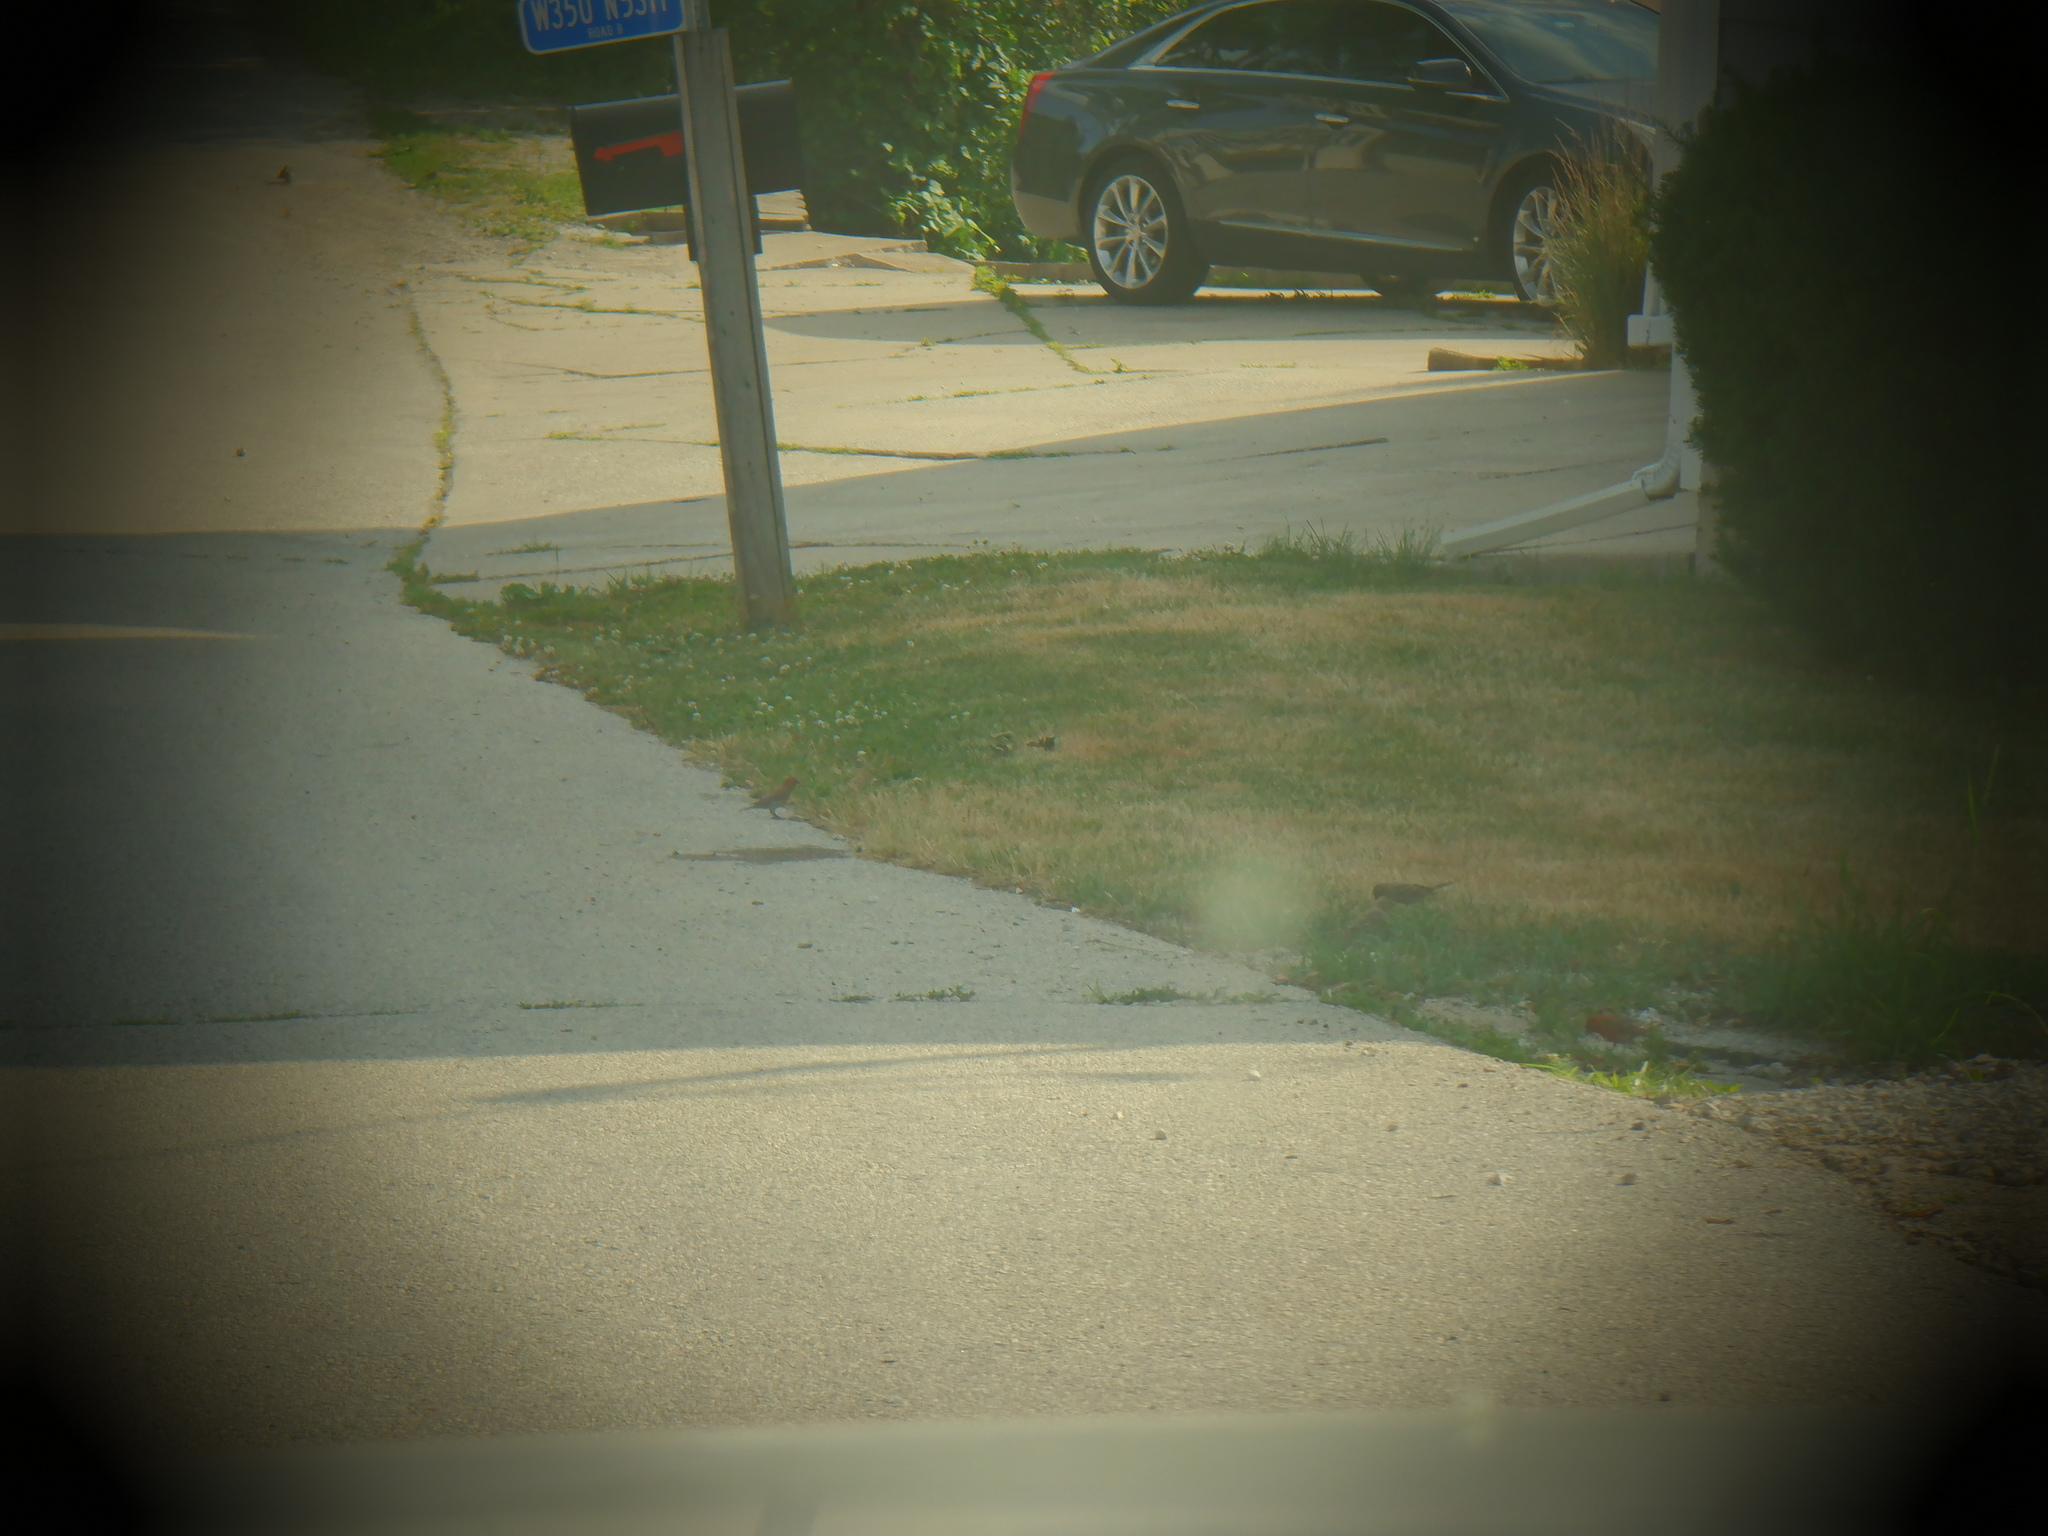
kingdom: Animalia
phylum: Chordata
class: Aves
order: Passeriformes
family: Fringillidae
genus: Haemorhous
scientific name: Haemorhous mexicanus
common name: House finch
